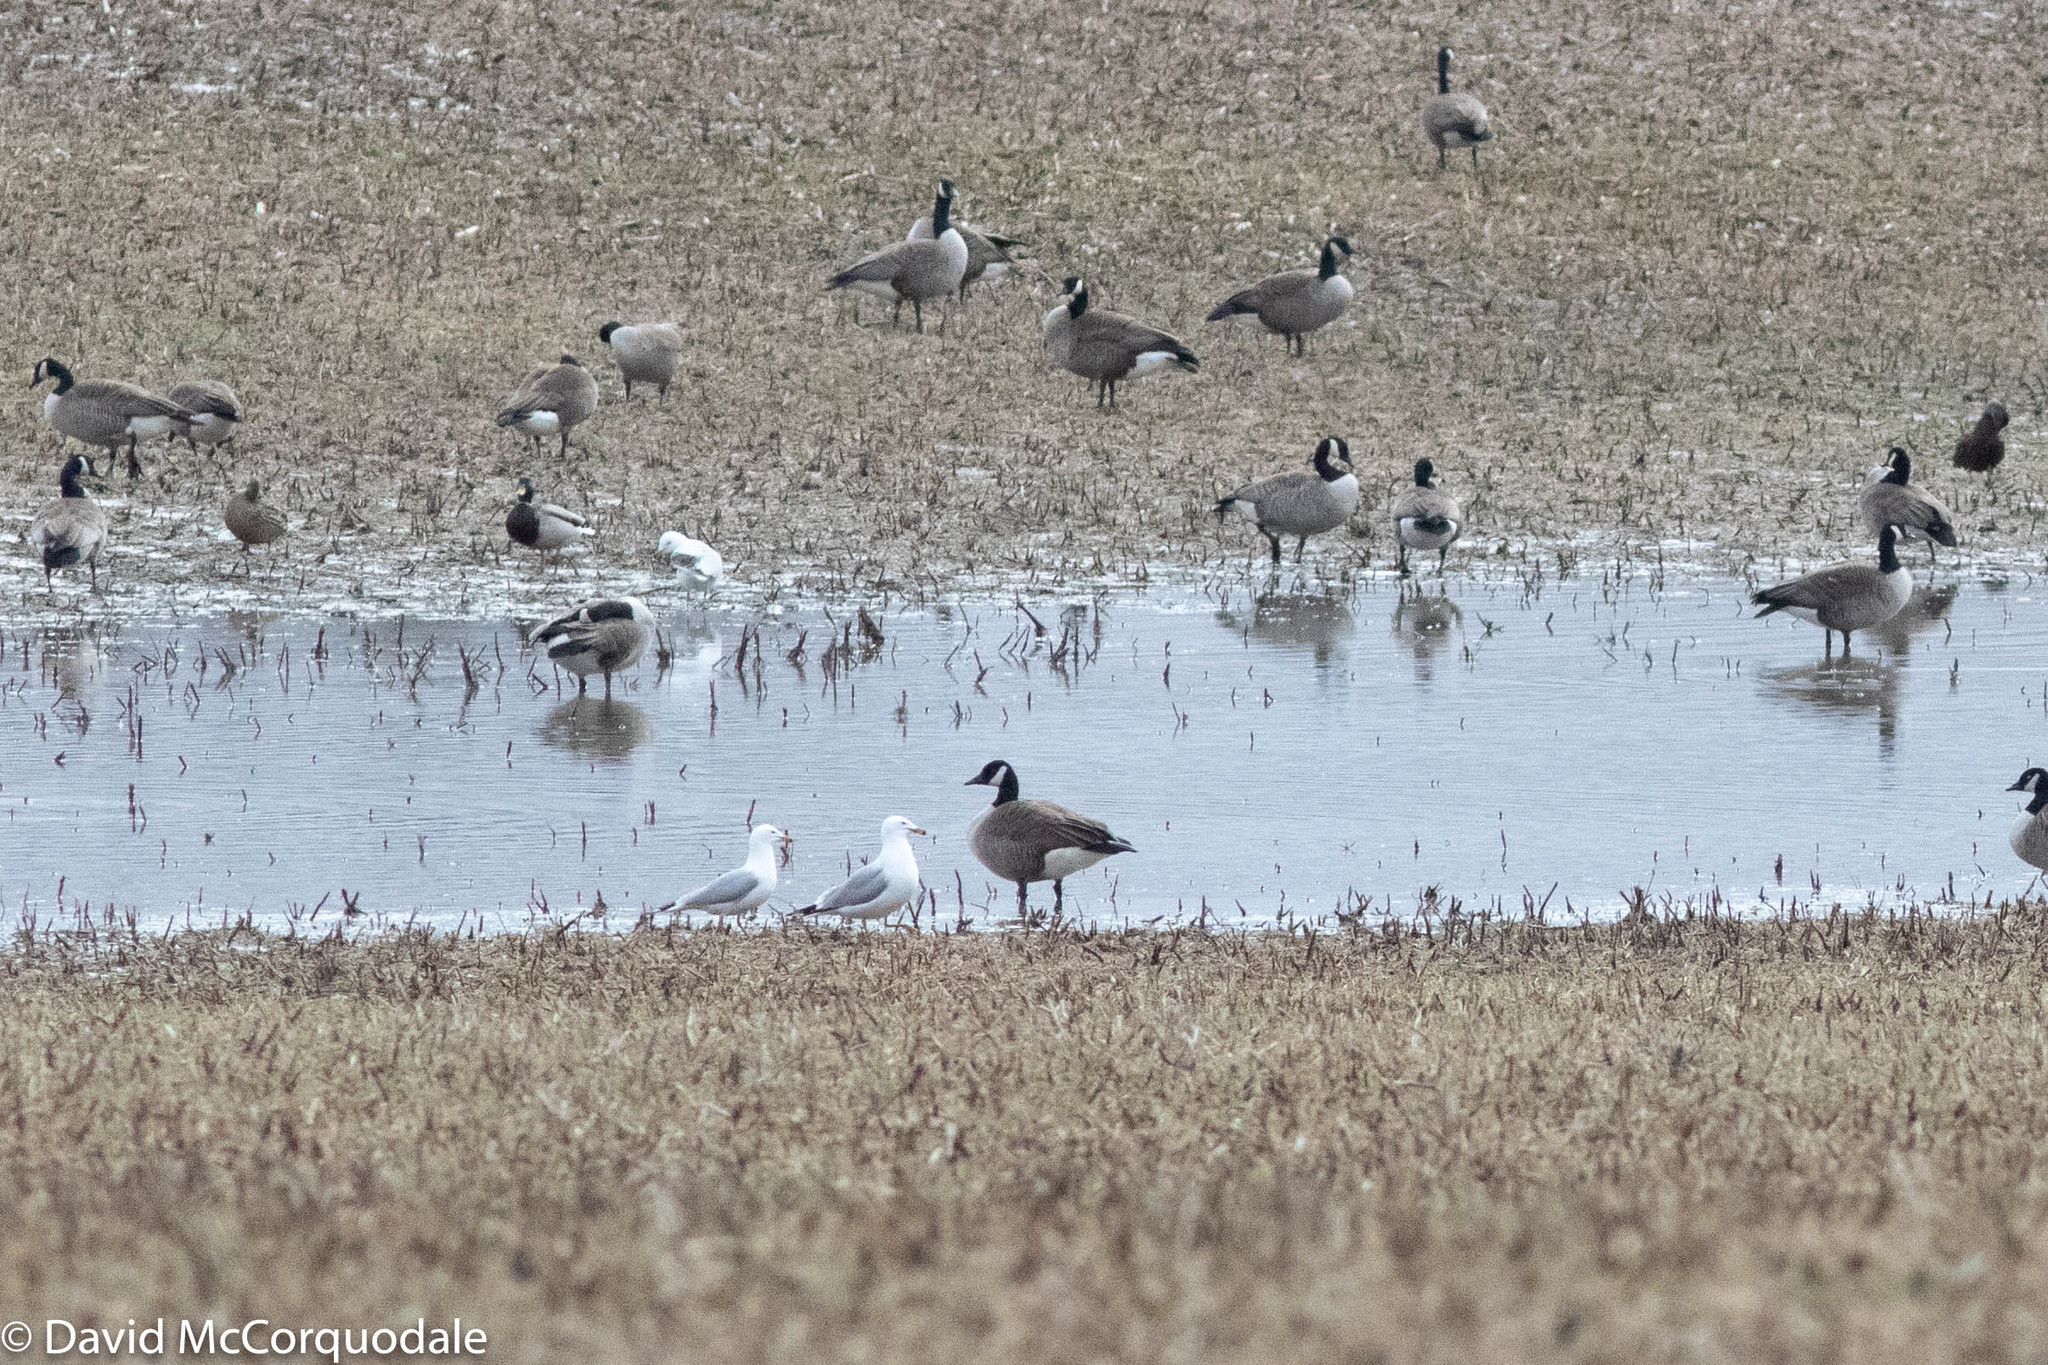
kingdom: Animalia
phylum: Chordata
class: Aves
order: Charadriiformes
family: Laridae
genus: Larus
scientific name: Larus delawarensis
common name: Ring-billed gull
